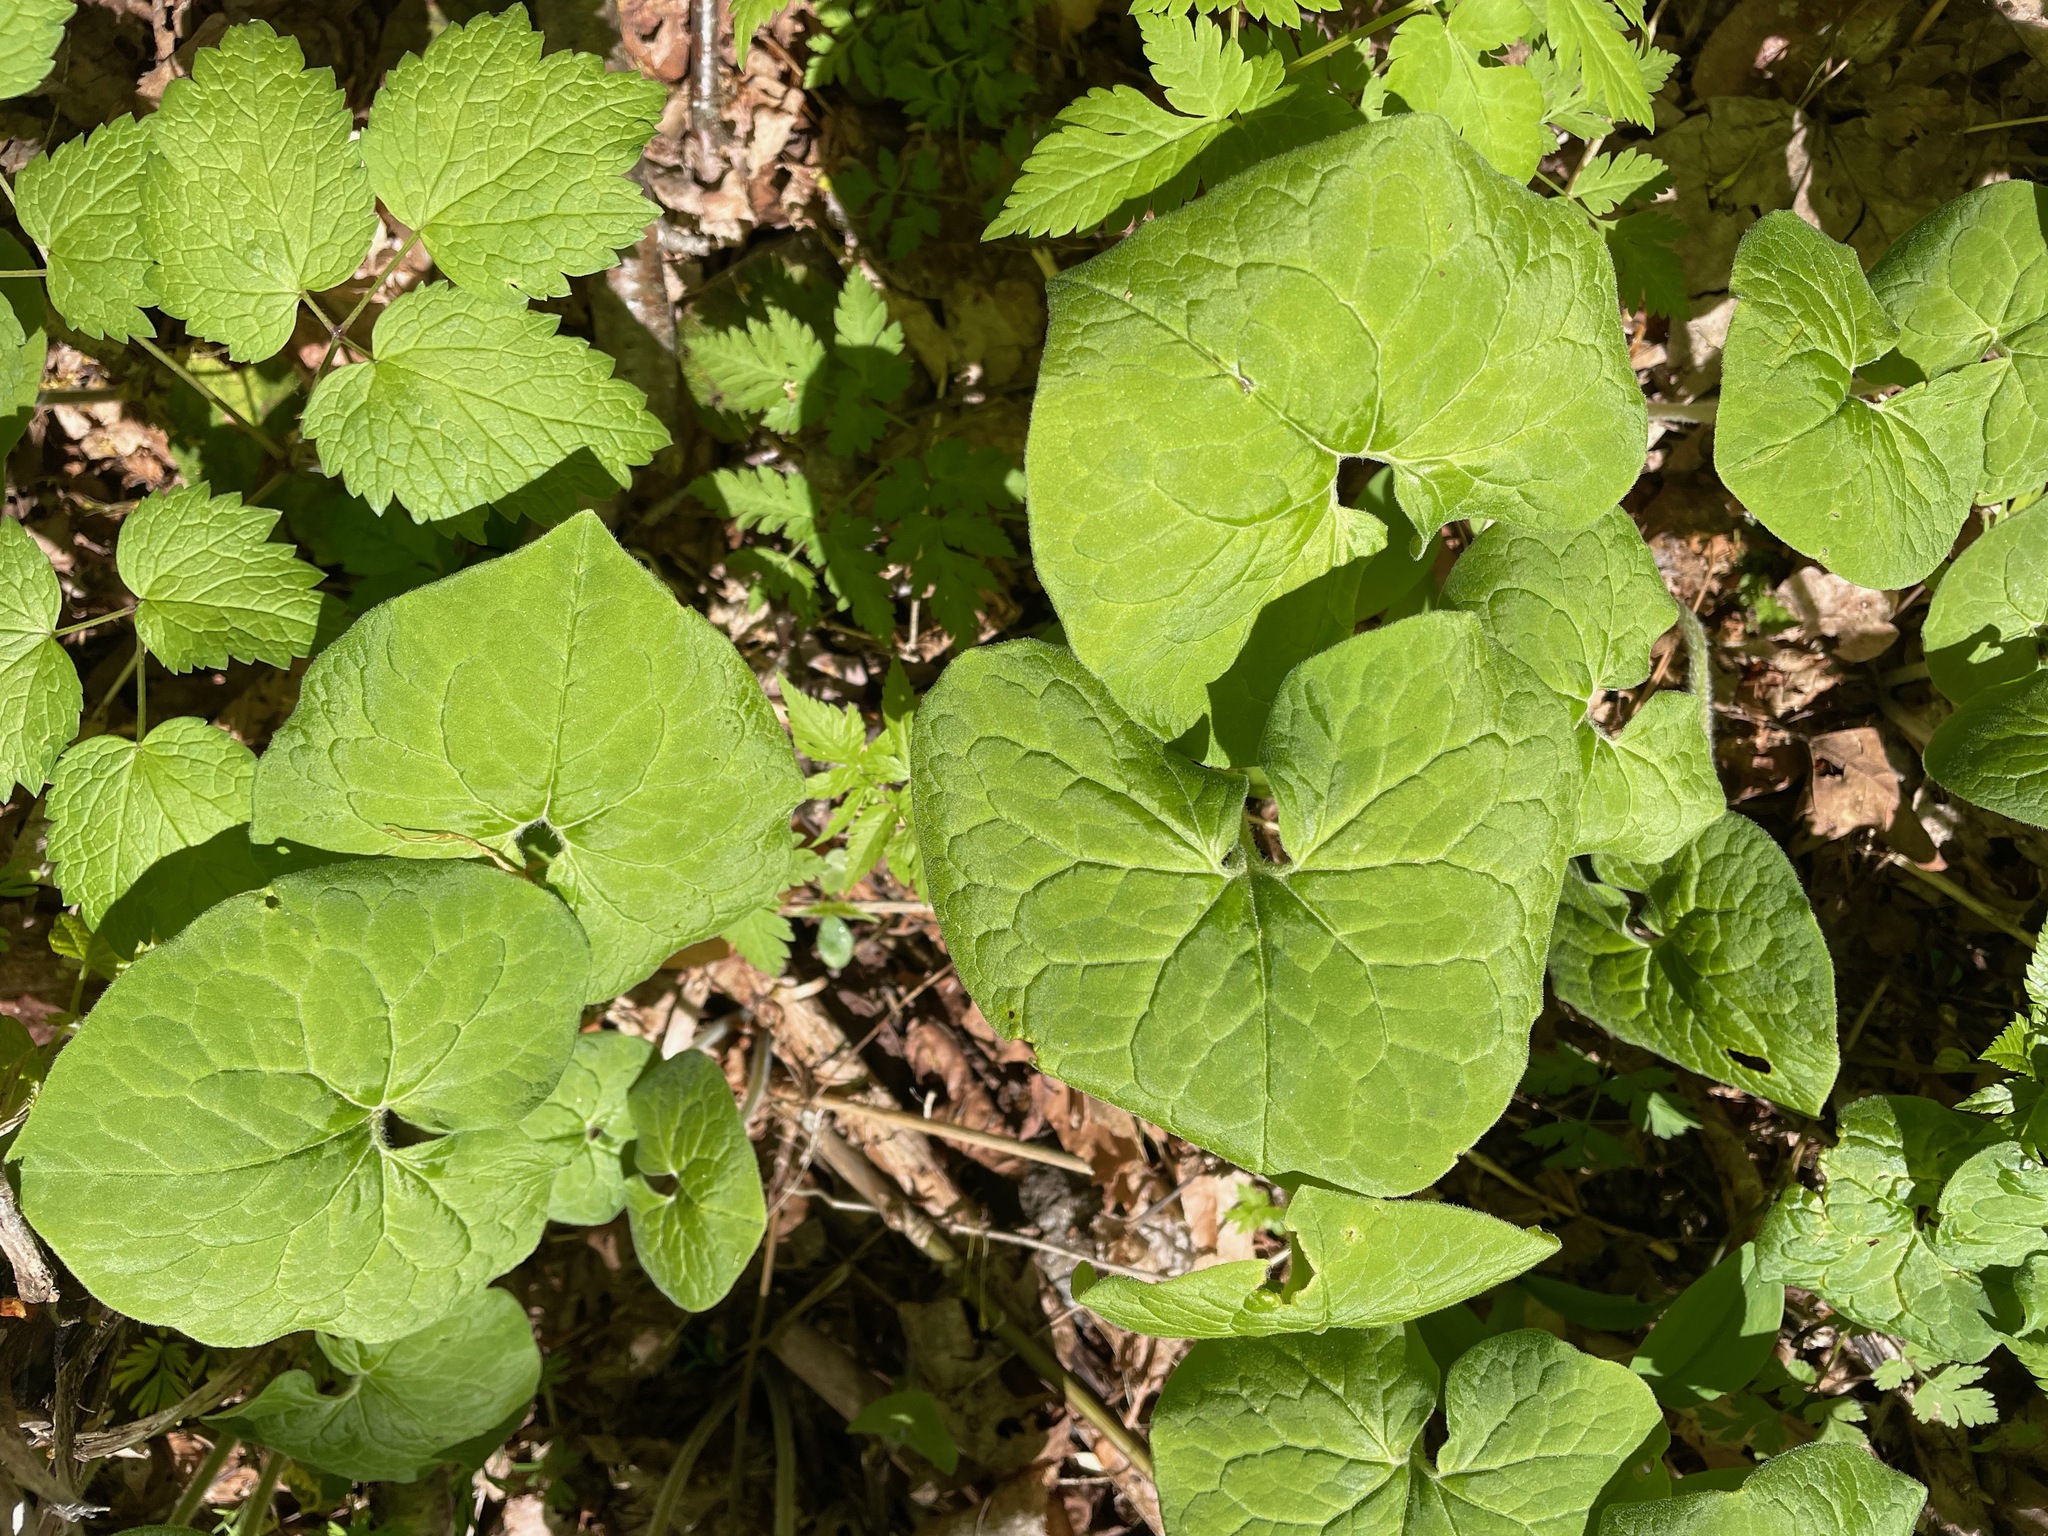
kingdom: Plantae
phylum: Tracheophyta
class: Magnoliopsida
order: Piperales
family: Aristolochiaceae
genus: Asarum
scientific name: Asarum canadense
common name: Wild ginger
